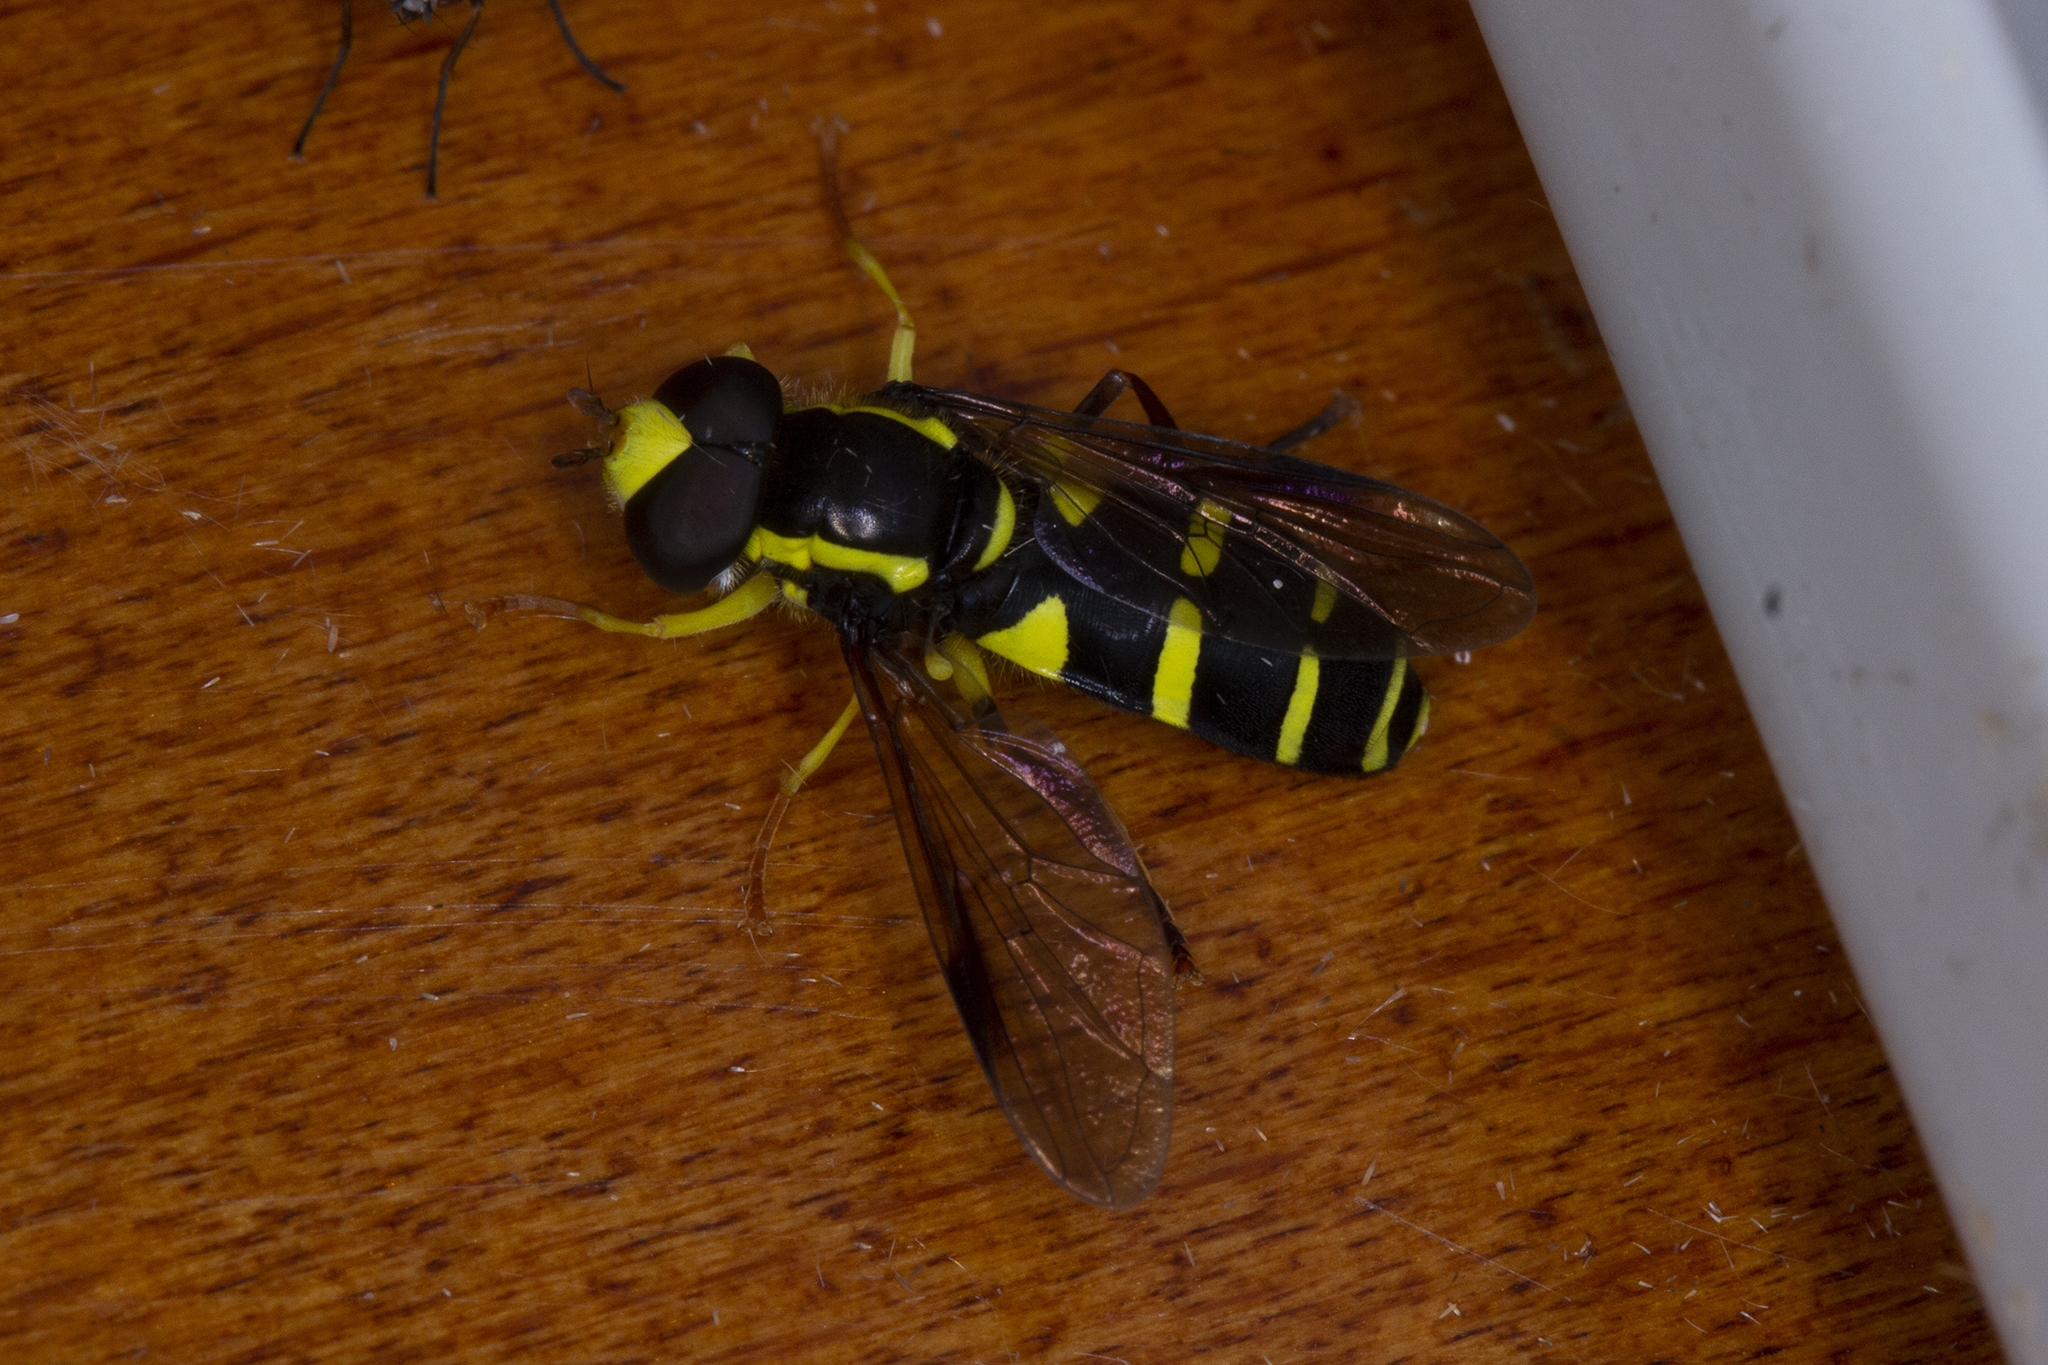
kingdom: Animalia
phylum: Arthropoda
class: Insecta
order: Diptera
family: Syrphidae
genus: Philhelius
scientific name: Philhelius pedissequum
